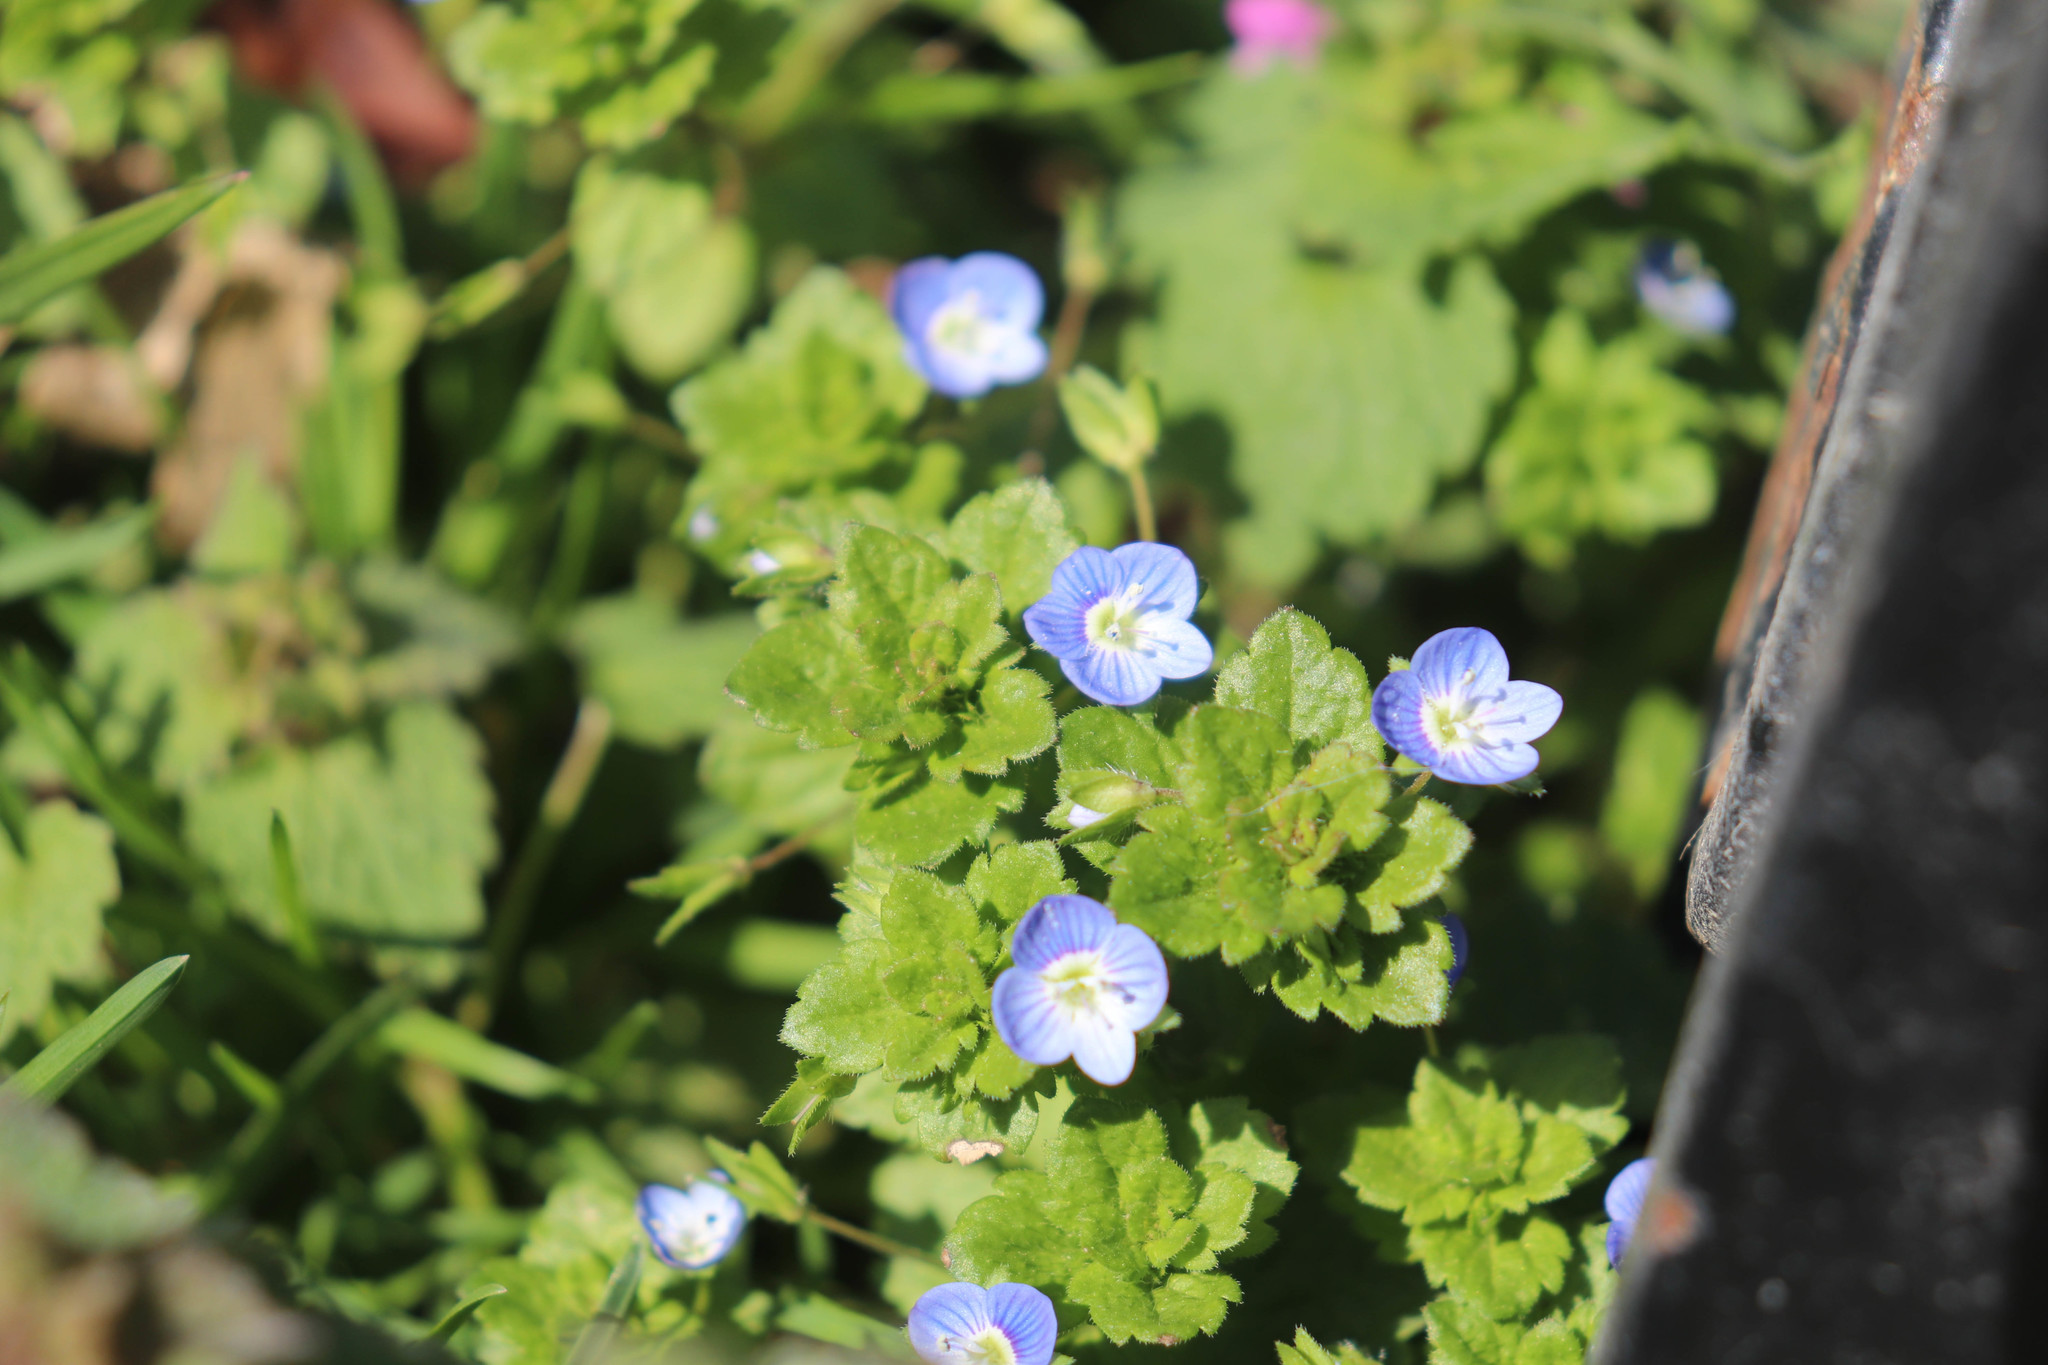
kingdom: Plantae
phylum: Tracheophyta
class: Magnoliopsida
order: Lamiales
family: Plantaginaceae
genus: Veronica
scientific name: Veronica persica
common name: Common field-speedwell
